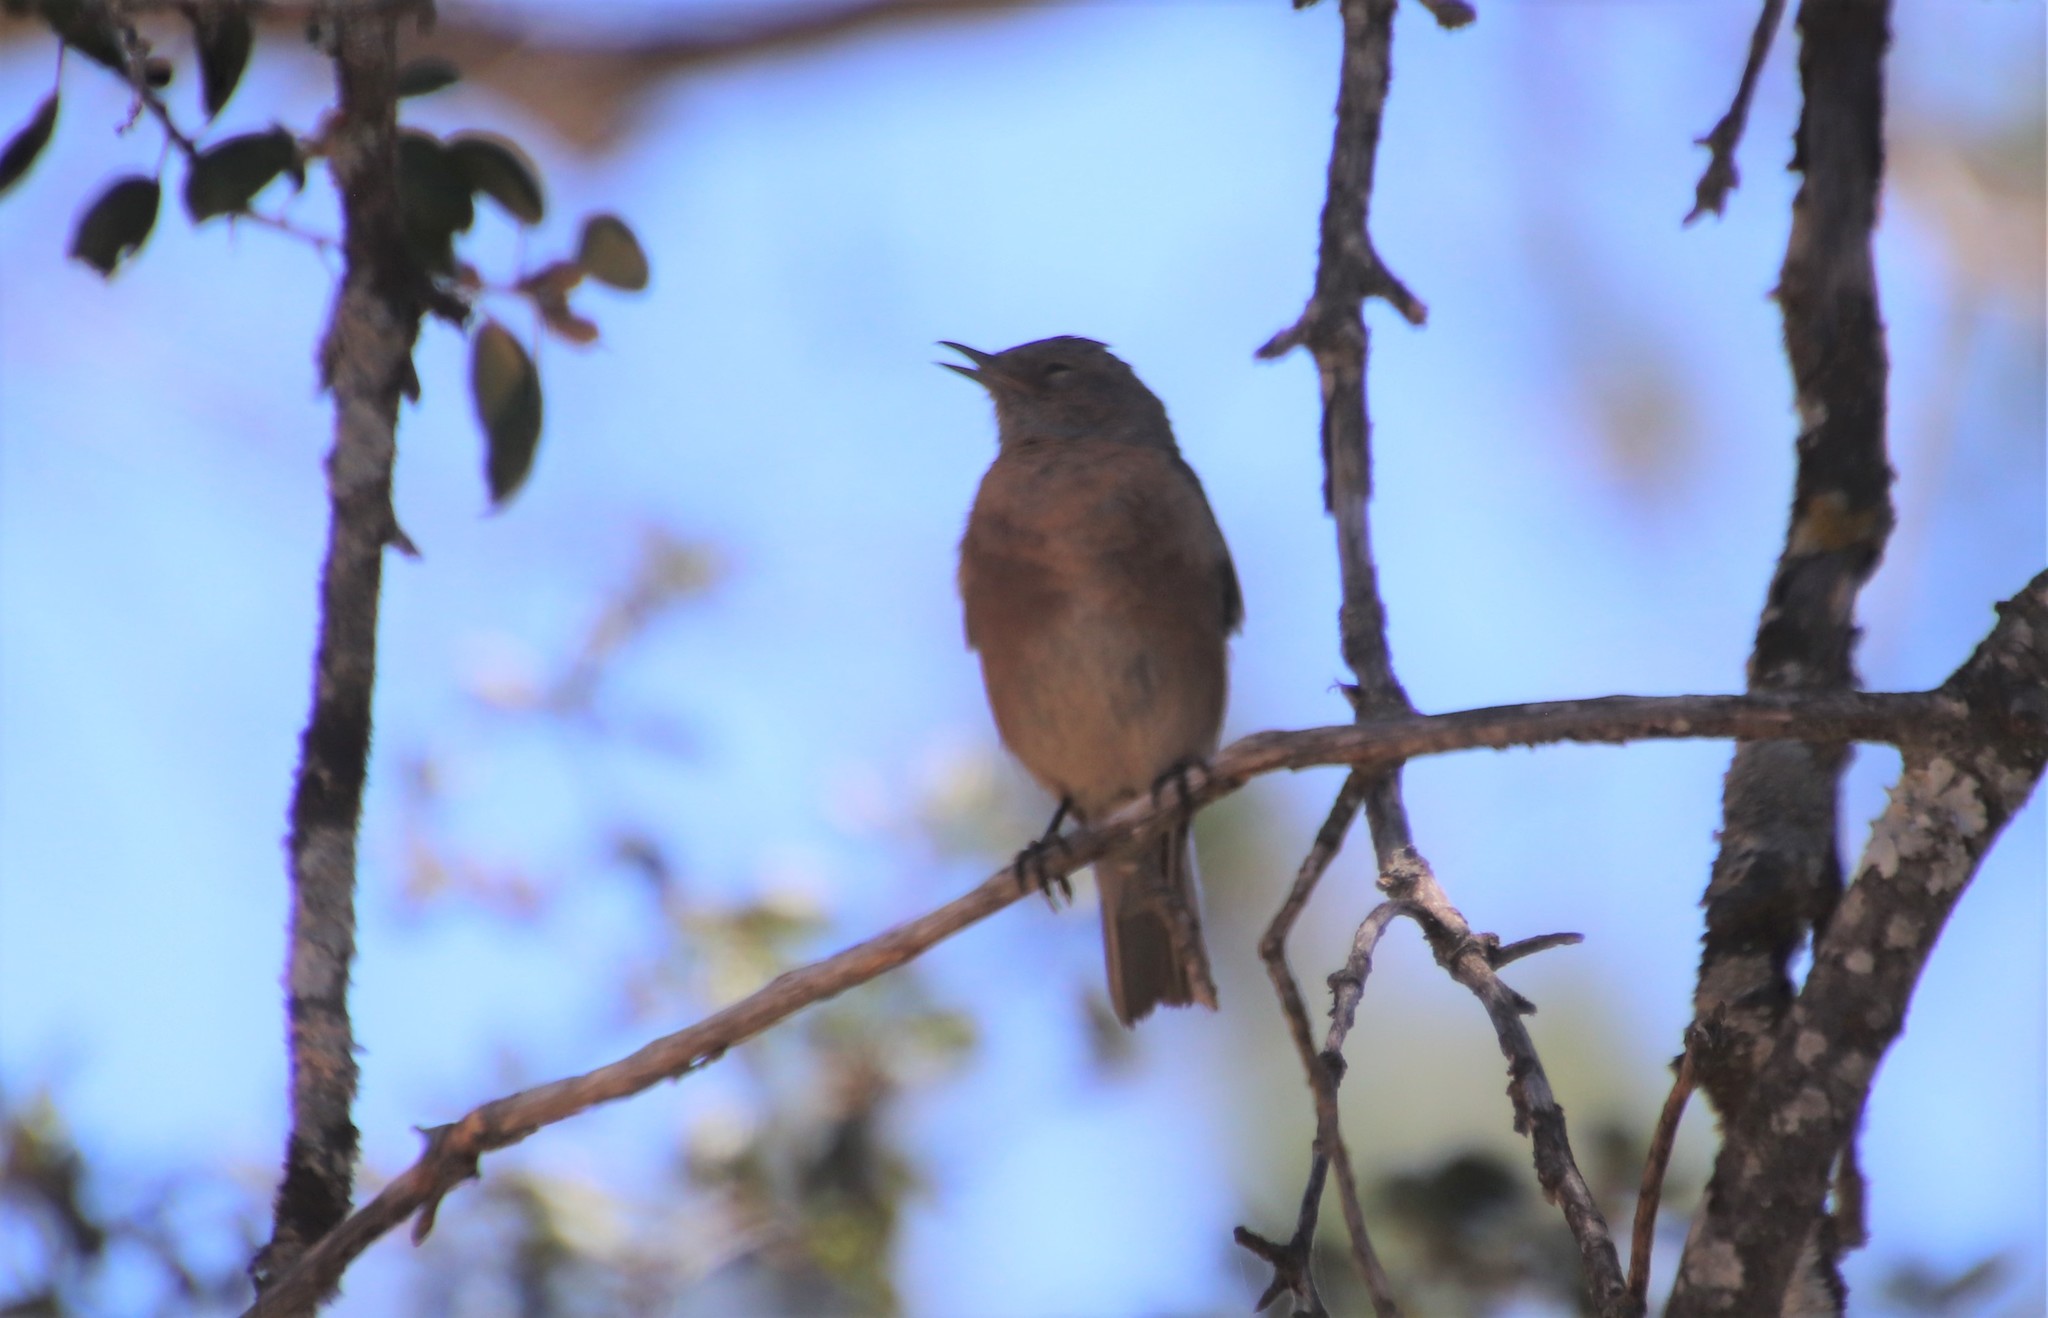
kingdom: Animalia
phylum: Chordata
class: Aves
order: Passeriformes
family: Turdidae
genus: Sialia
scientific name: Sialia mexicana
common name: Western bluebird
